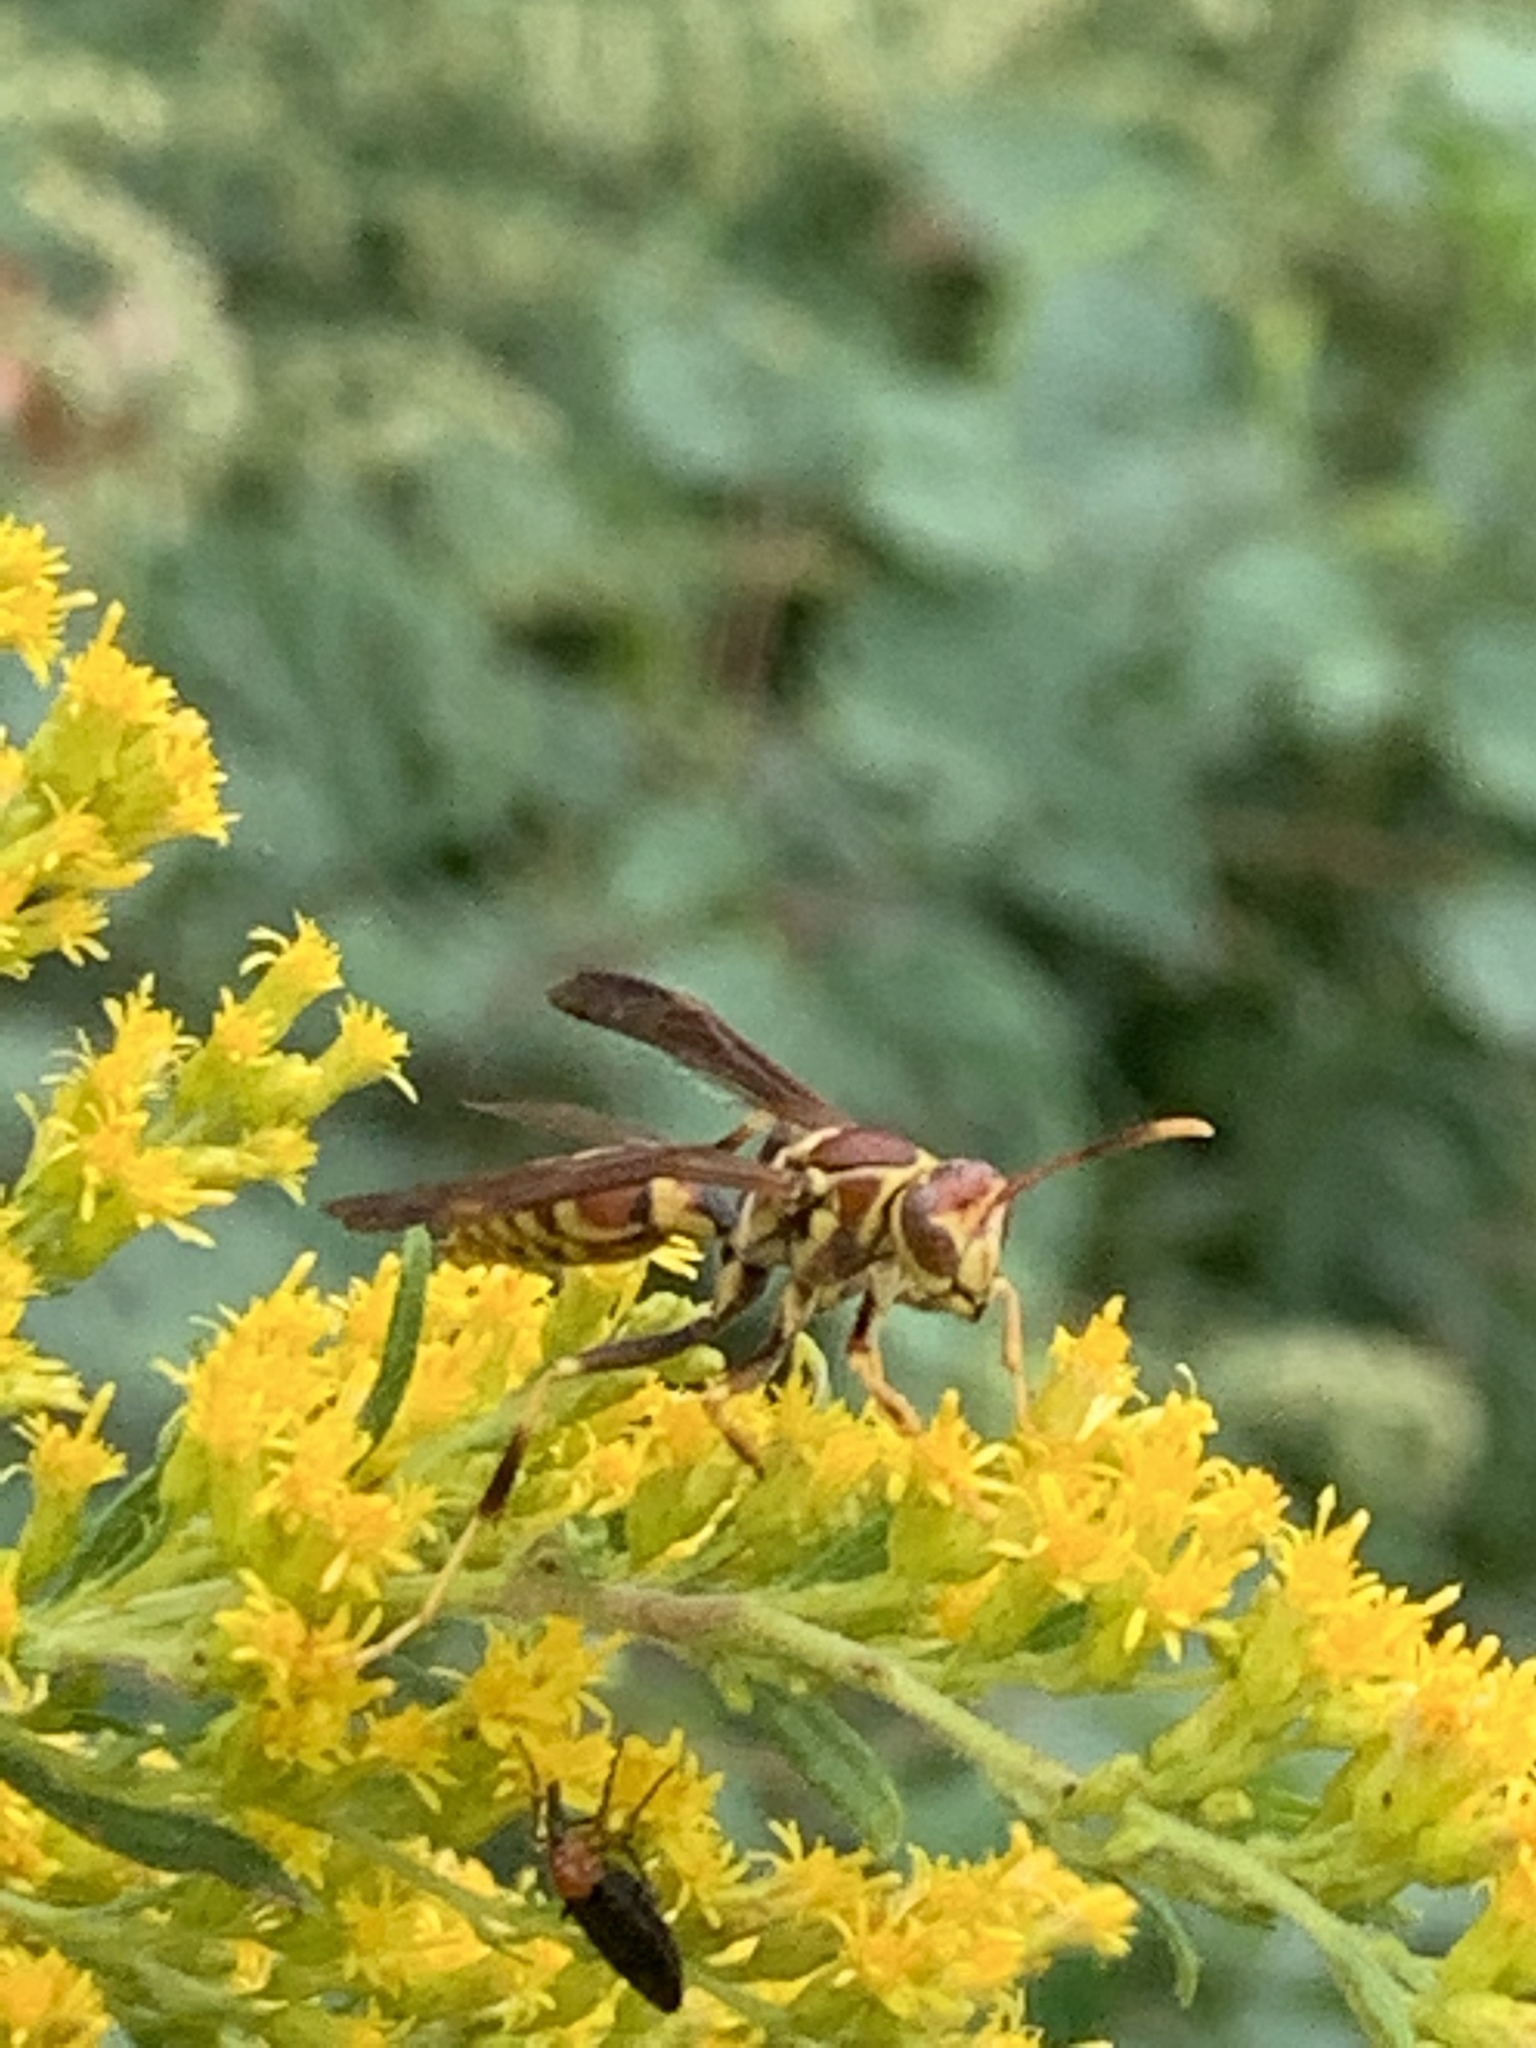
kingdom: Animalia
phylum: Arthropoda
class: Insecta
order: Hymenoptera
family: Eumenidae
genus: Polistes
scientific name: Polistes exclamans
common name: Paper wasp
